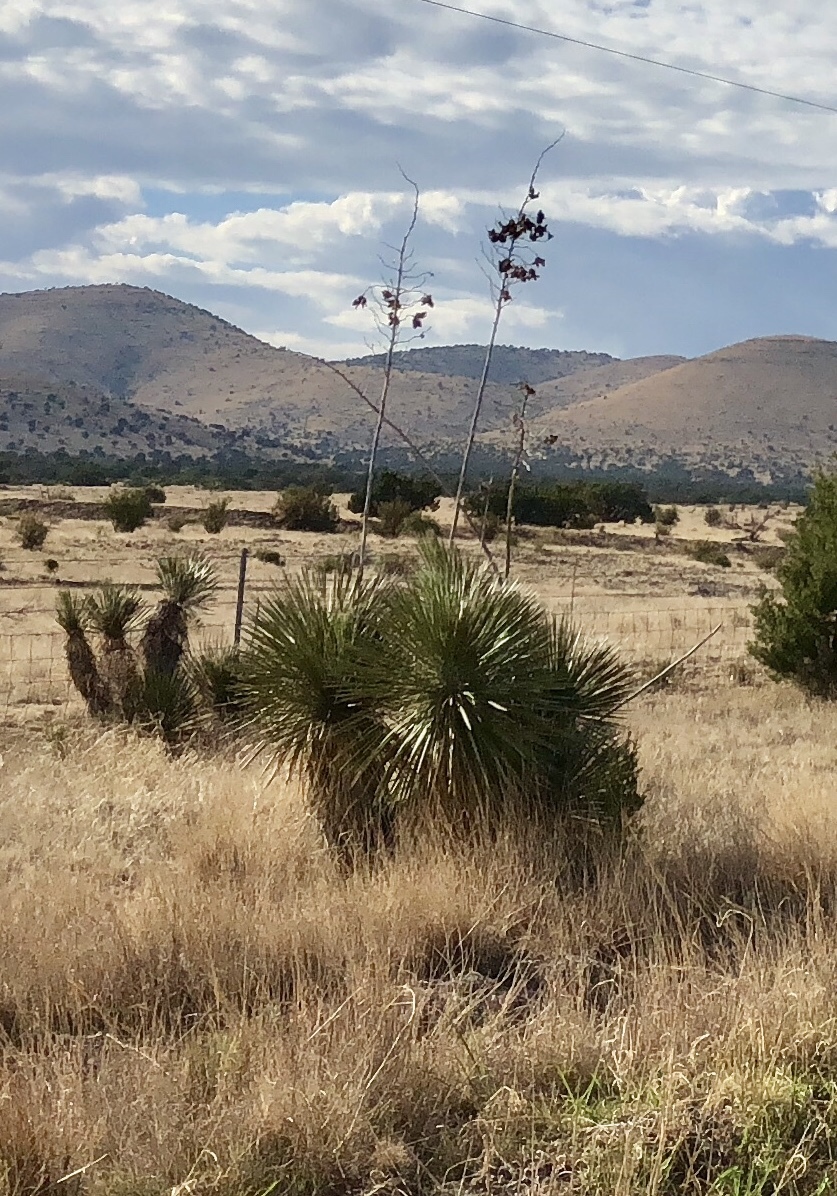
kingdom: Plantae
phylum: Tracheophyta
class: Liliopsida
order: Asparagales
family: Asparagaceae
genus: Yucca
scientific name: Yucca elata
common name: Palmella
